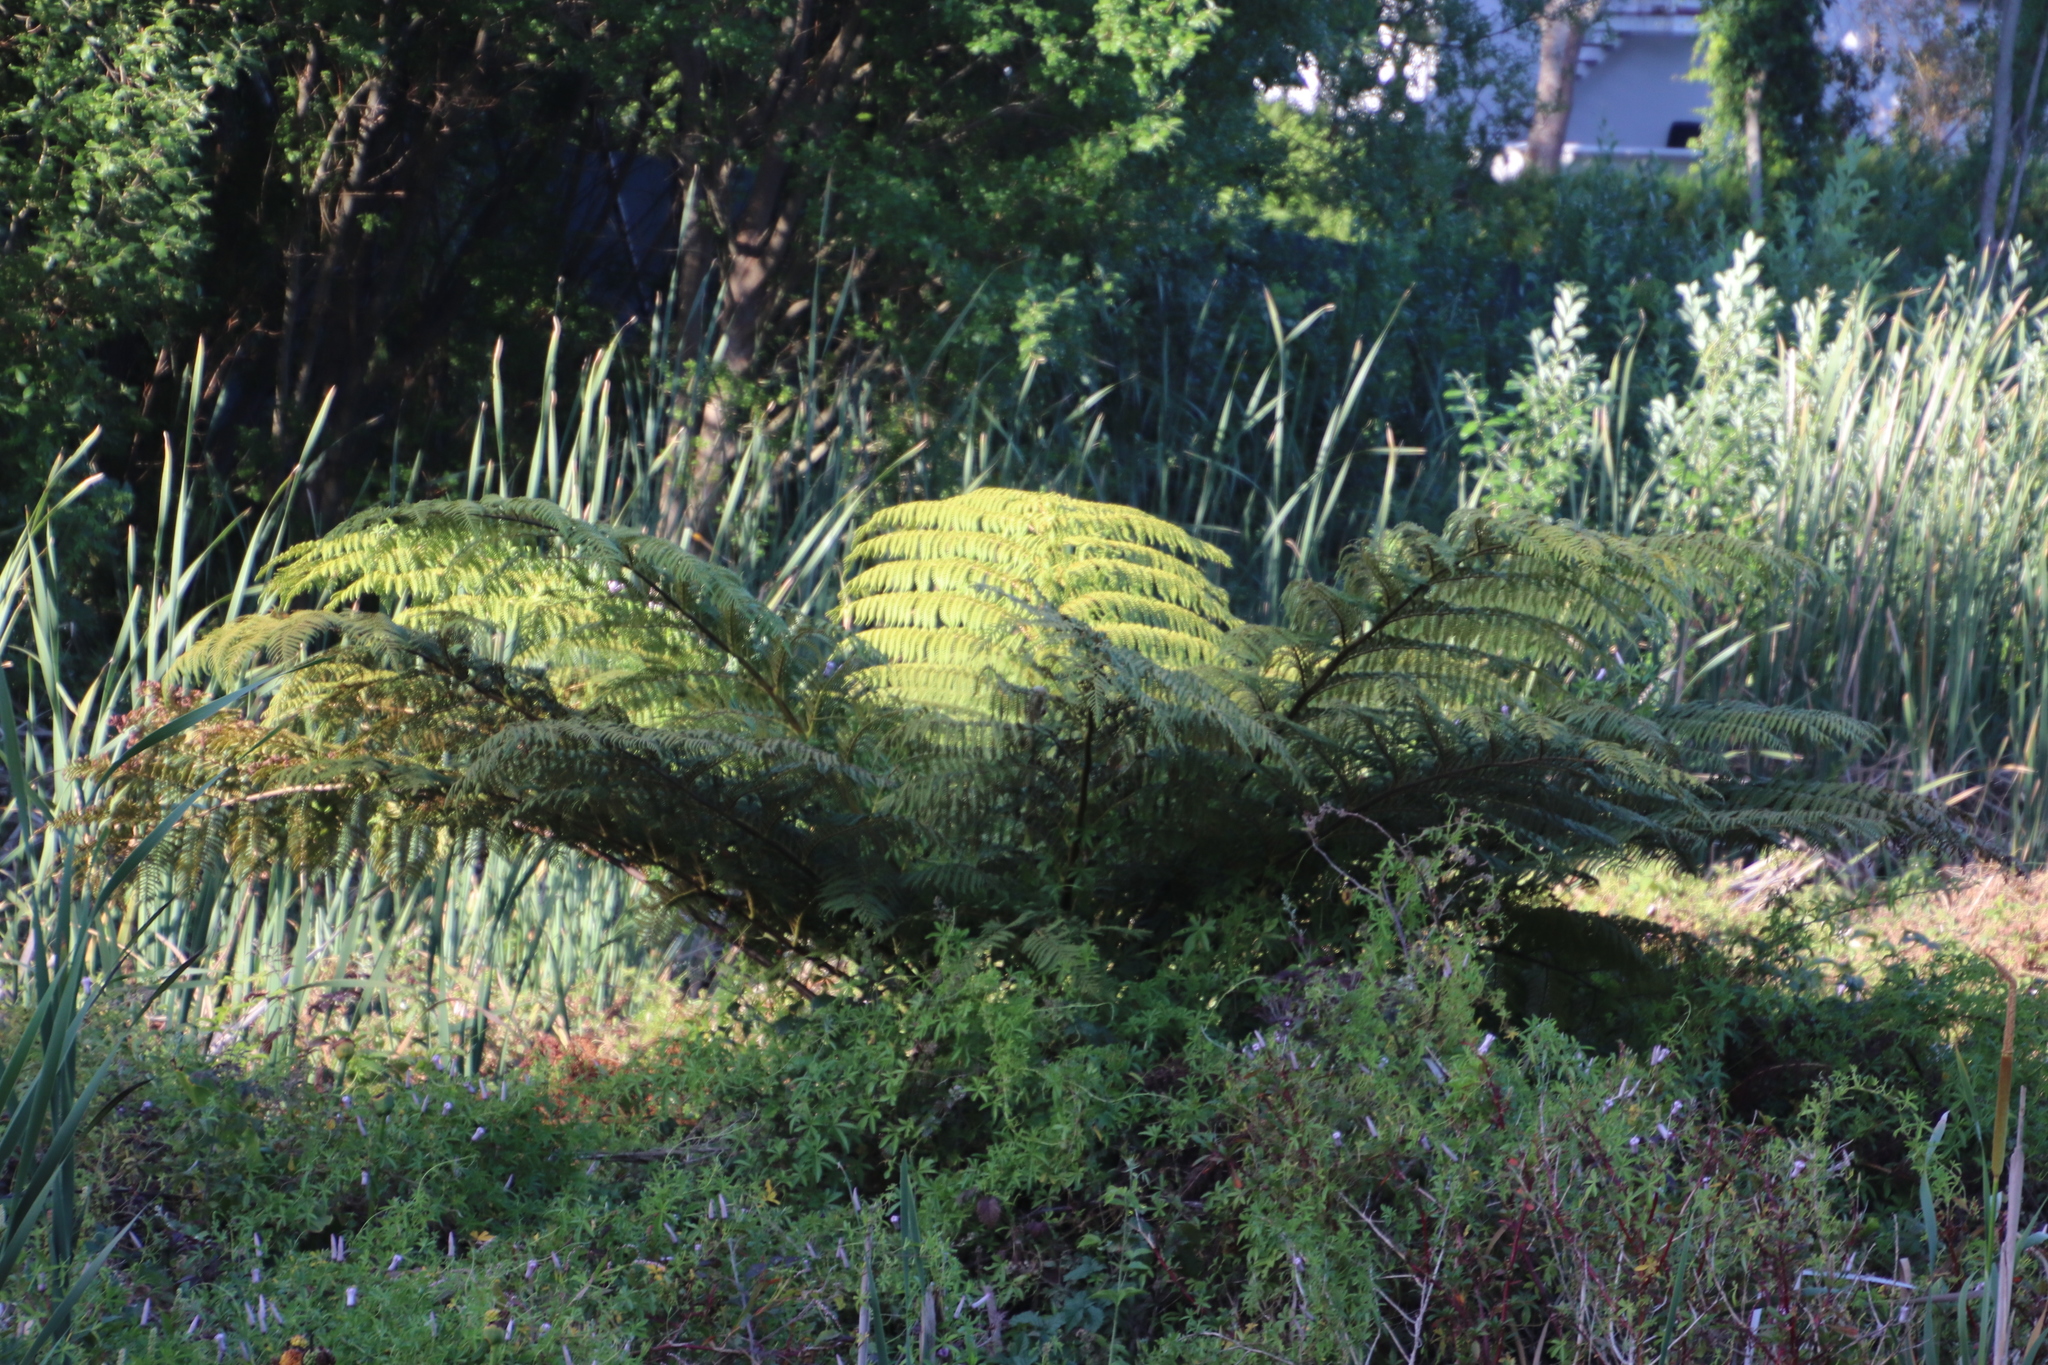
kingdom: Plantae
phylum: Tracheophyta
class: Polypodiopsida
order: Cyatheales
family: Cyatheaceae
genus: Sphaeropteris
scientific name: Sphaeropteris cooperi
